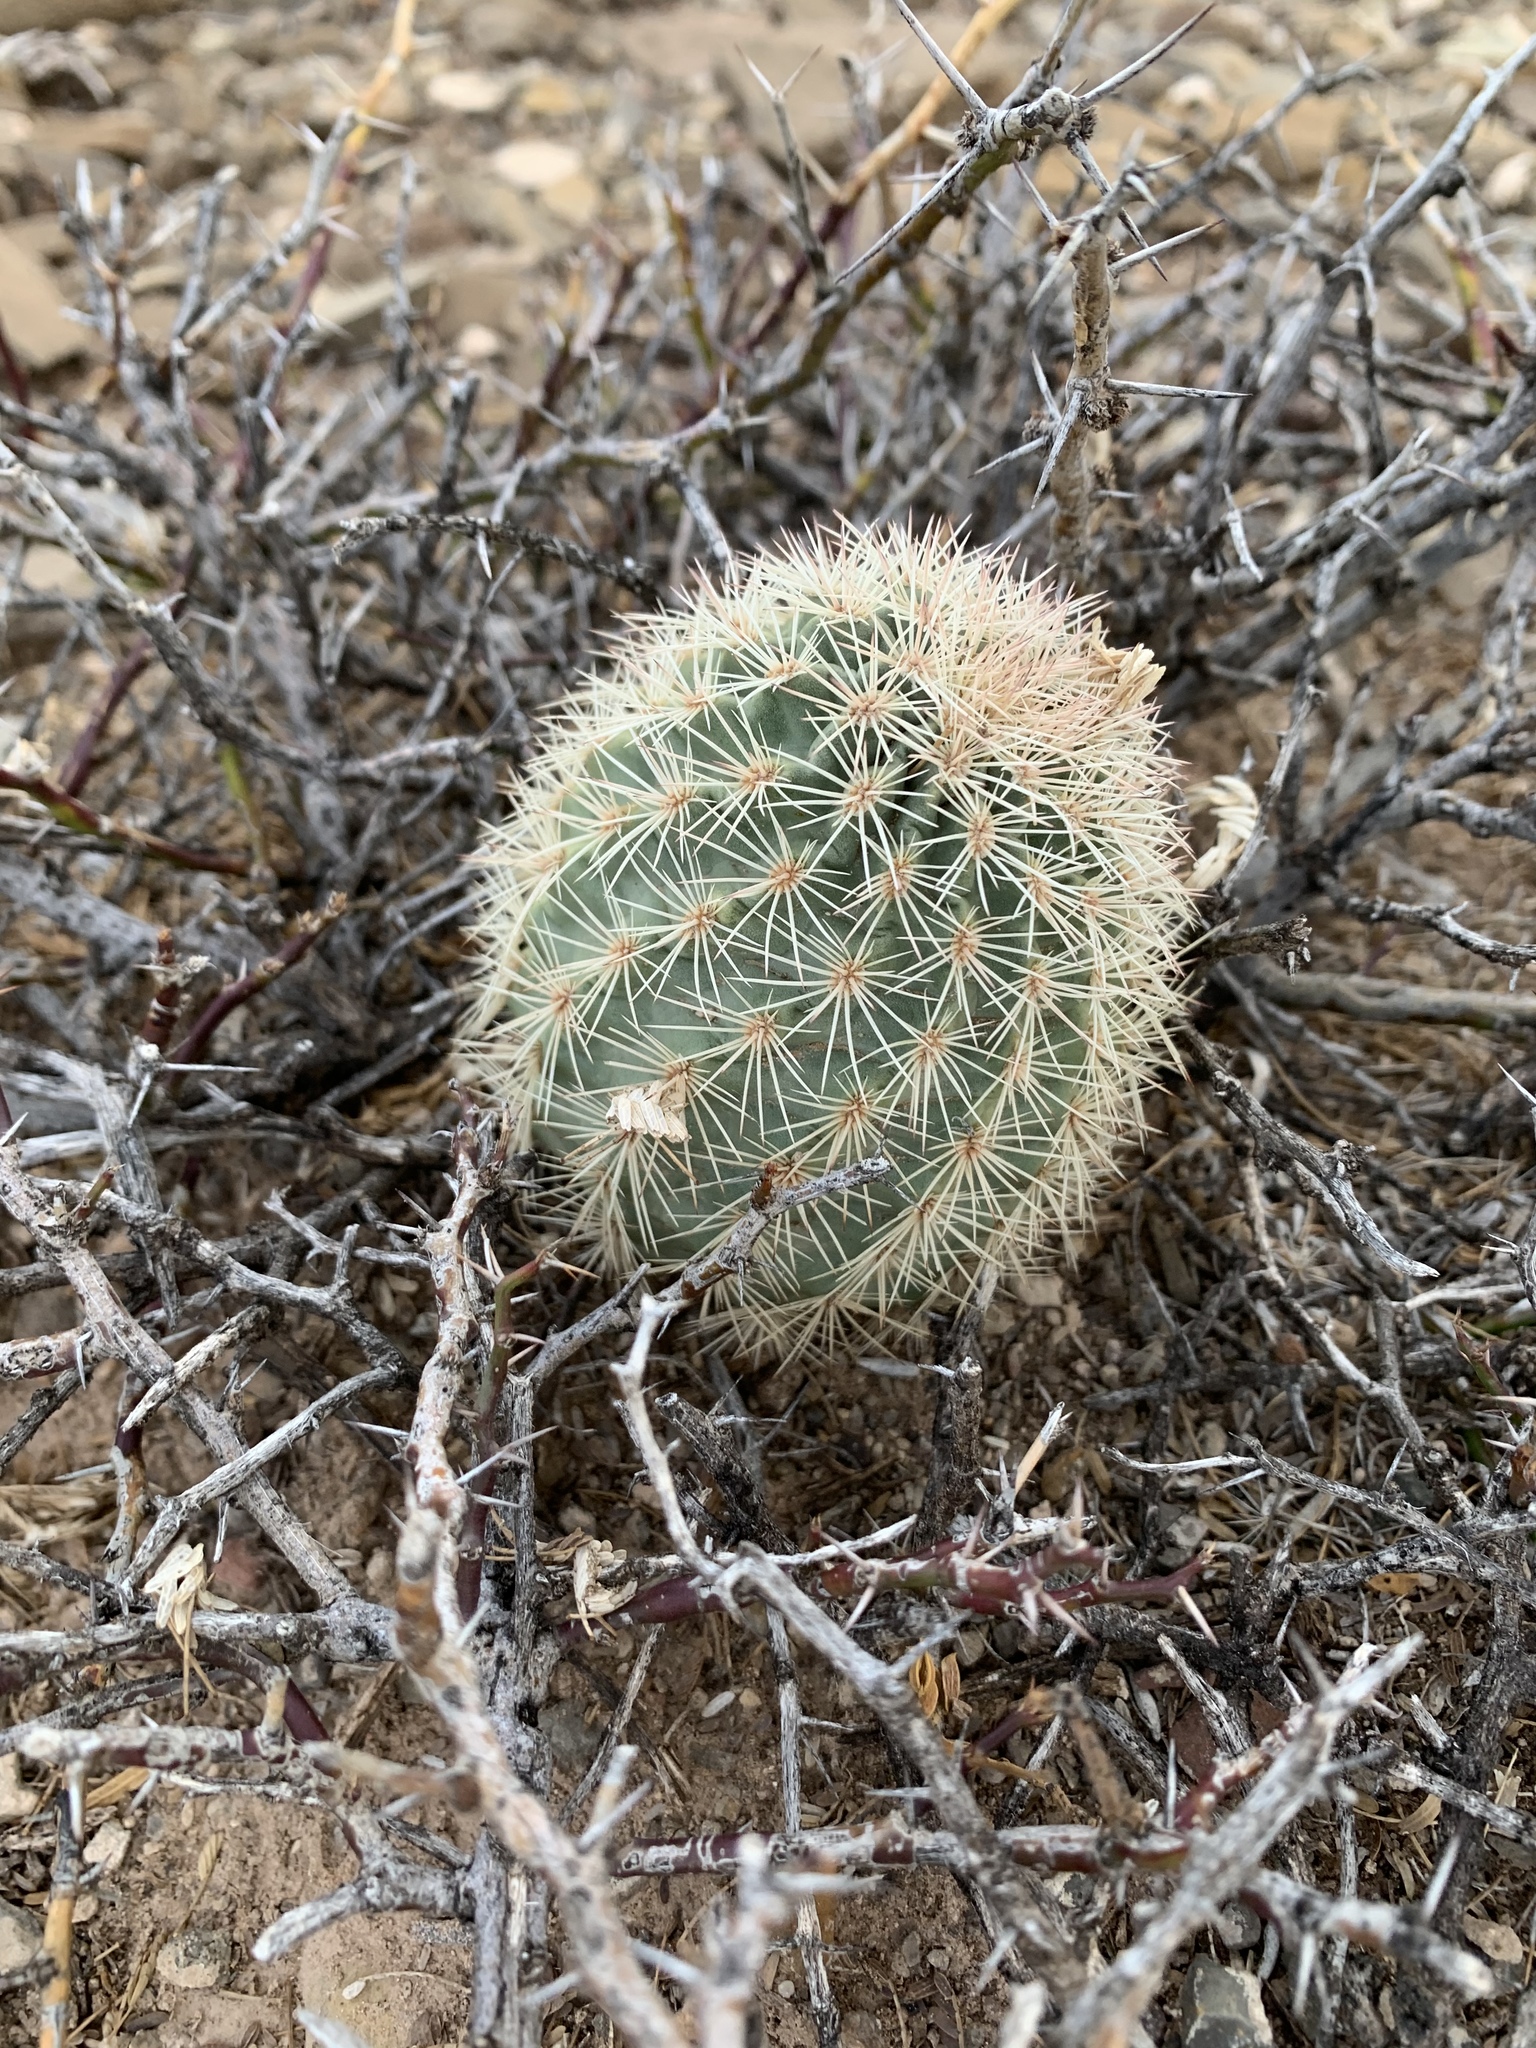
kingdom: Plantae
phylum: Tracheophyta
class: Magnoliopsida
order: Caryophyllales
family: Cactaceae
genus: Echinocereus
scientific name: Echinocereus dasyacanthus
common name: Spiny hedgehog cactus
